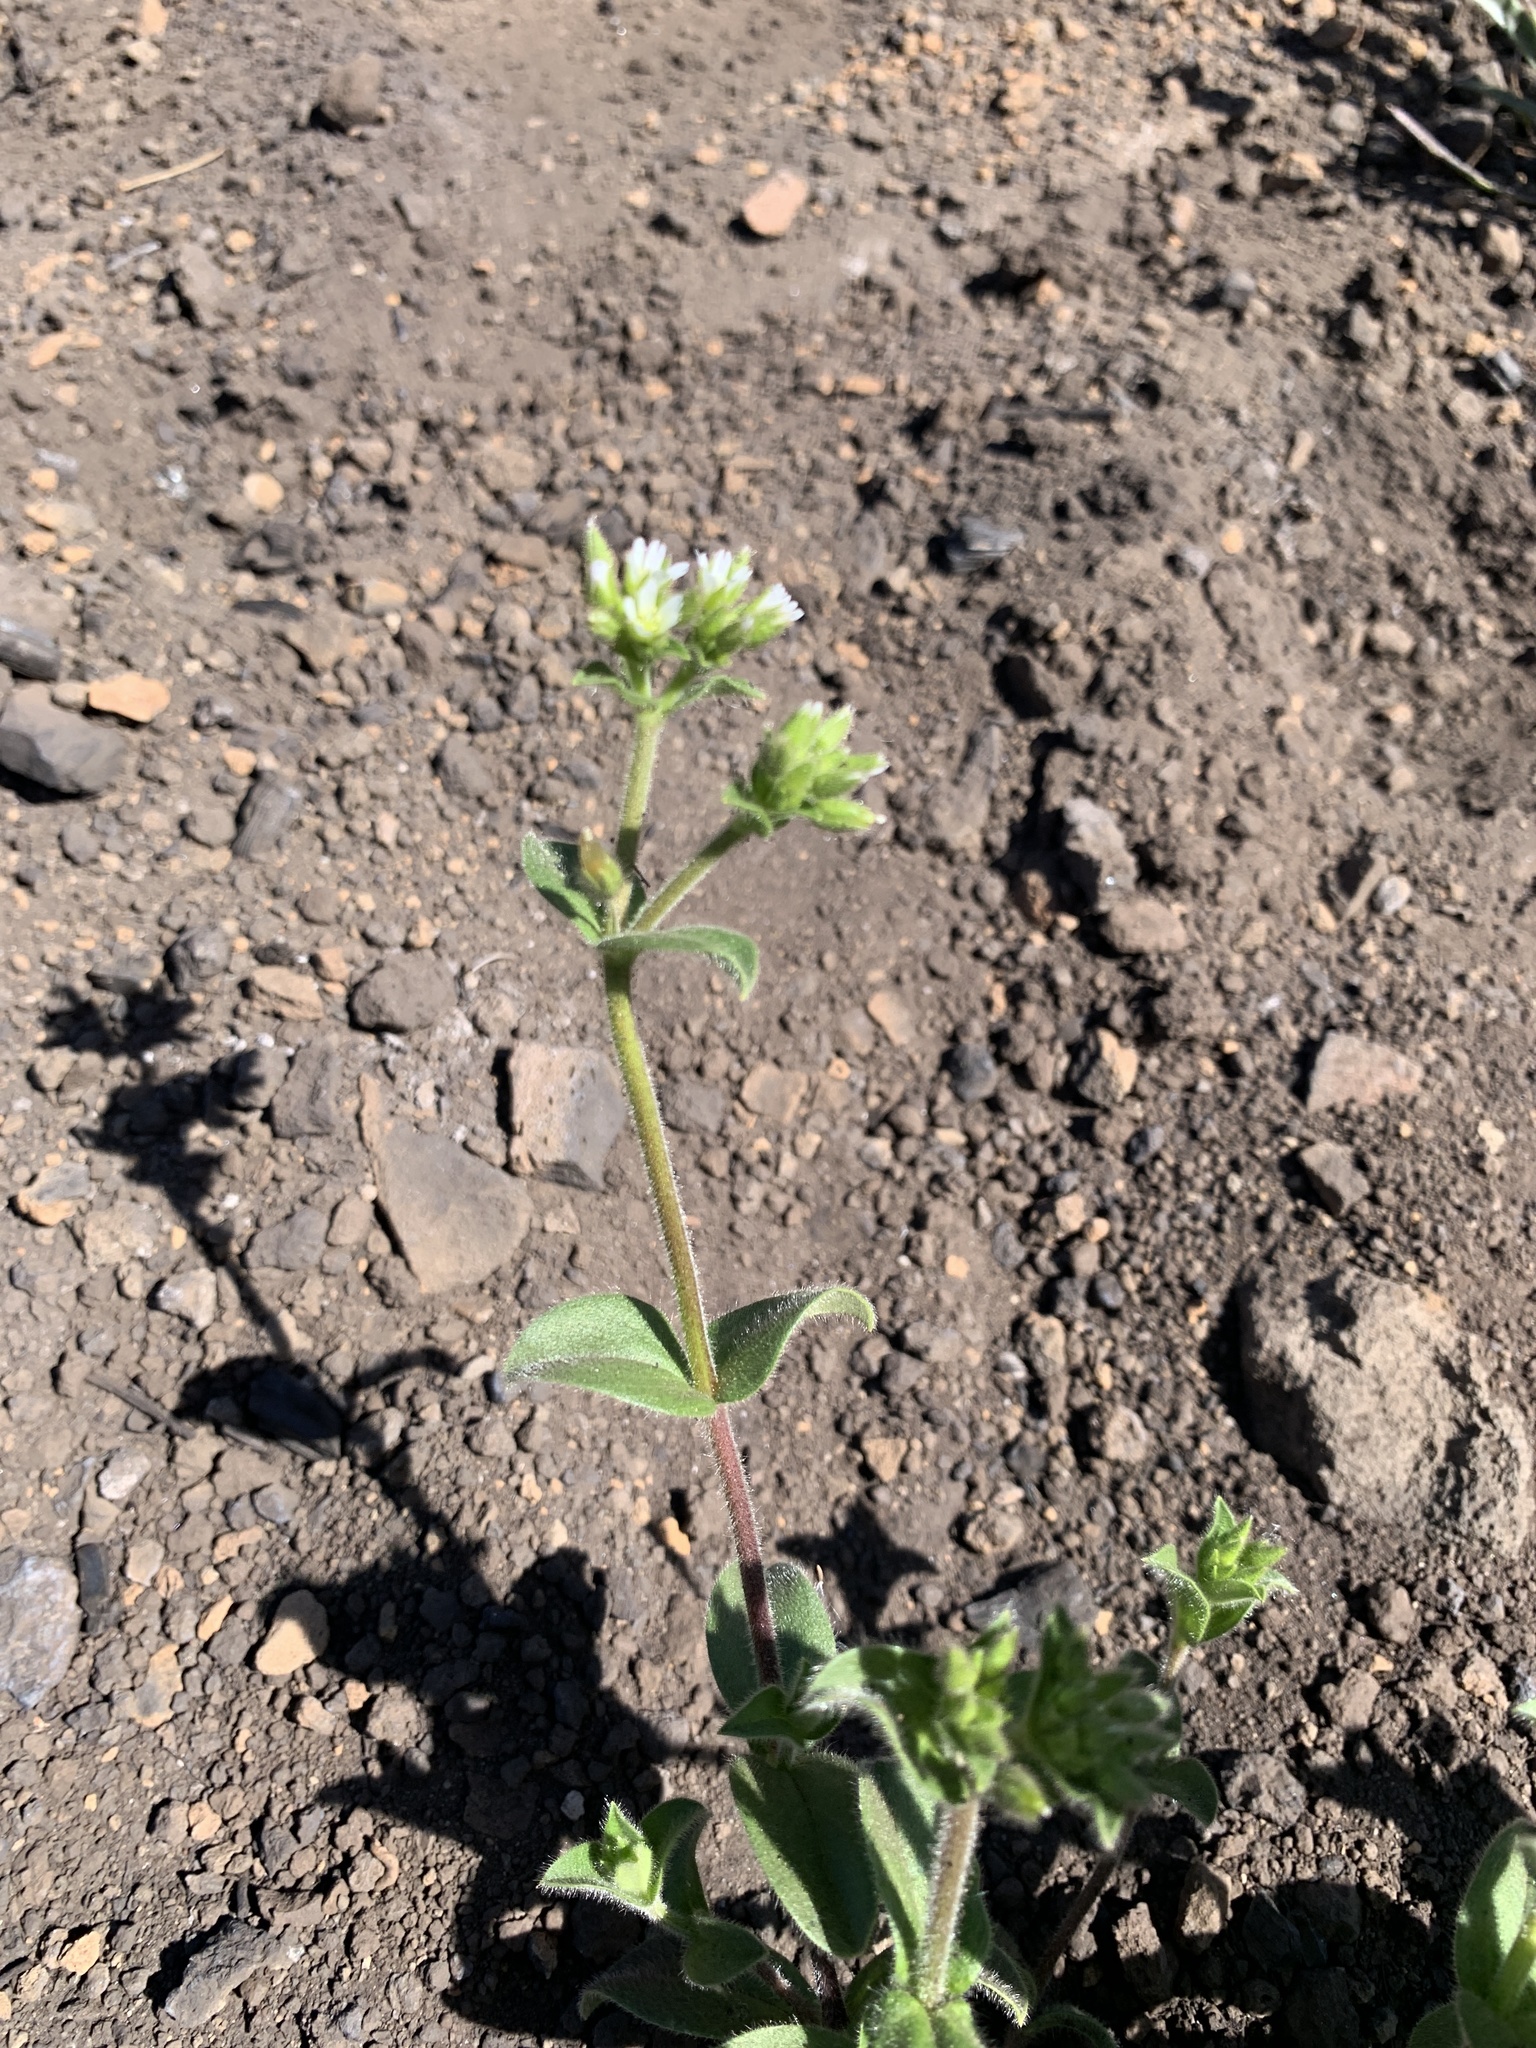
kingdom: Plantae
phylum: Tracheophyta
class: Magnoliopsida
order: Caryophyllales
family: Caryophyllaceae
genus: Cerastium
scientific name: Cerastium glomeratum
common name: Sticky chickweed
